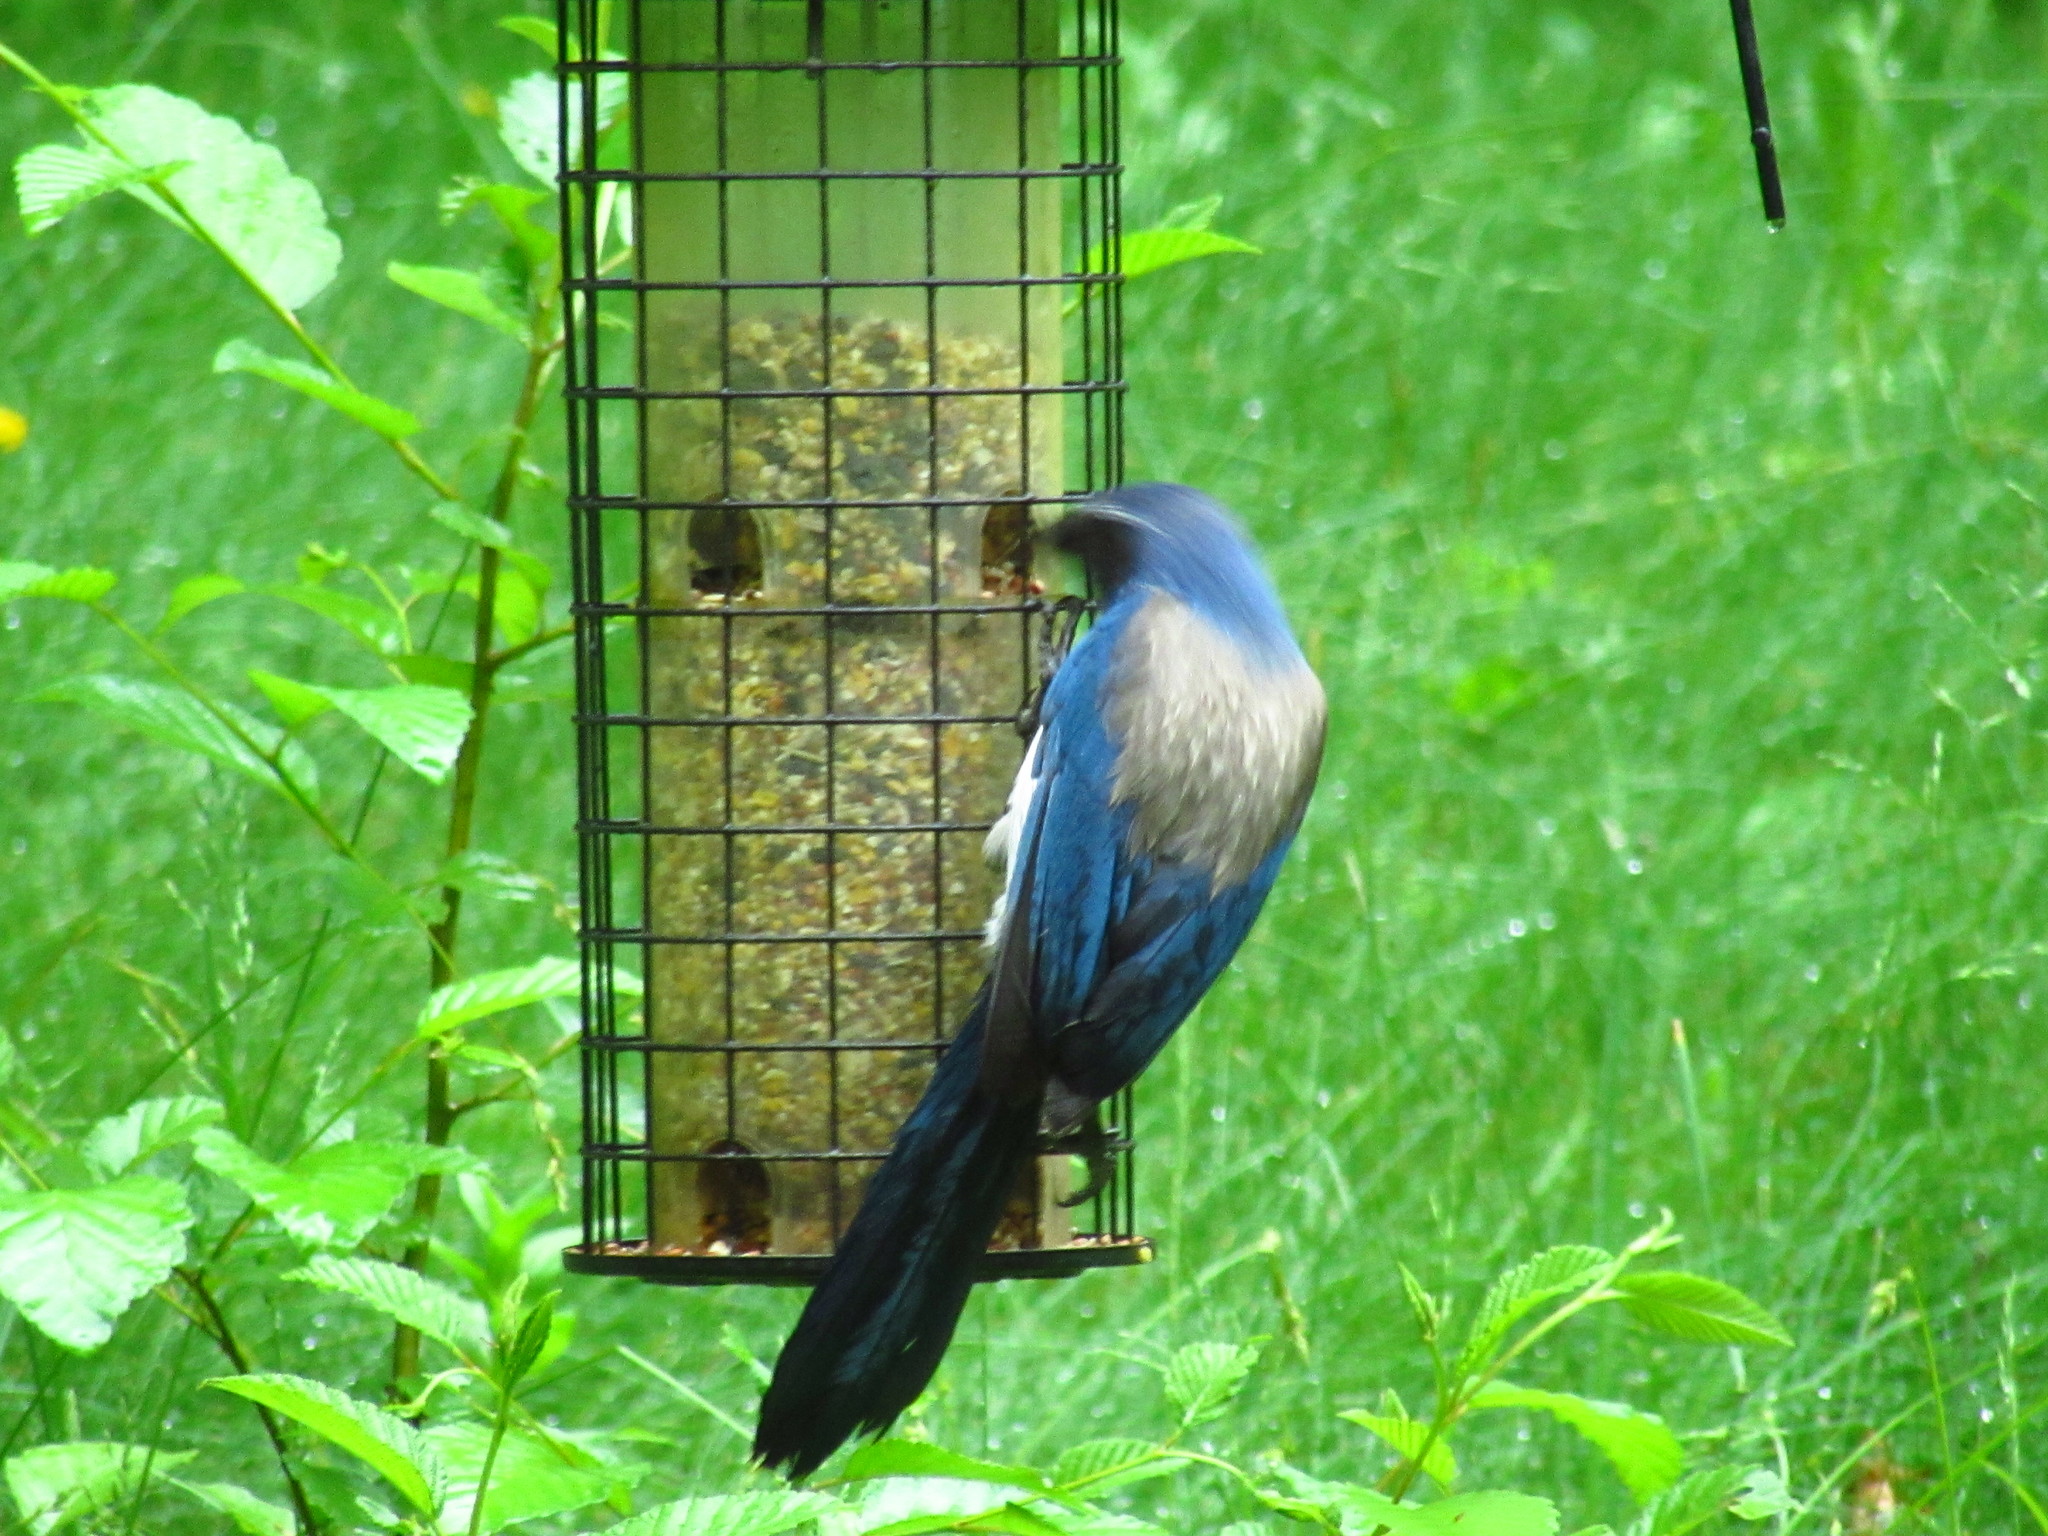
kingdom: Animalia
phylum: Chordata
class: Aves
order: Passeriformes
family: Corvidae
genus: Aphelocoma
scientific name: Aphelocoma californica
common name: California scrub-jay
